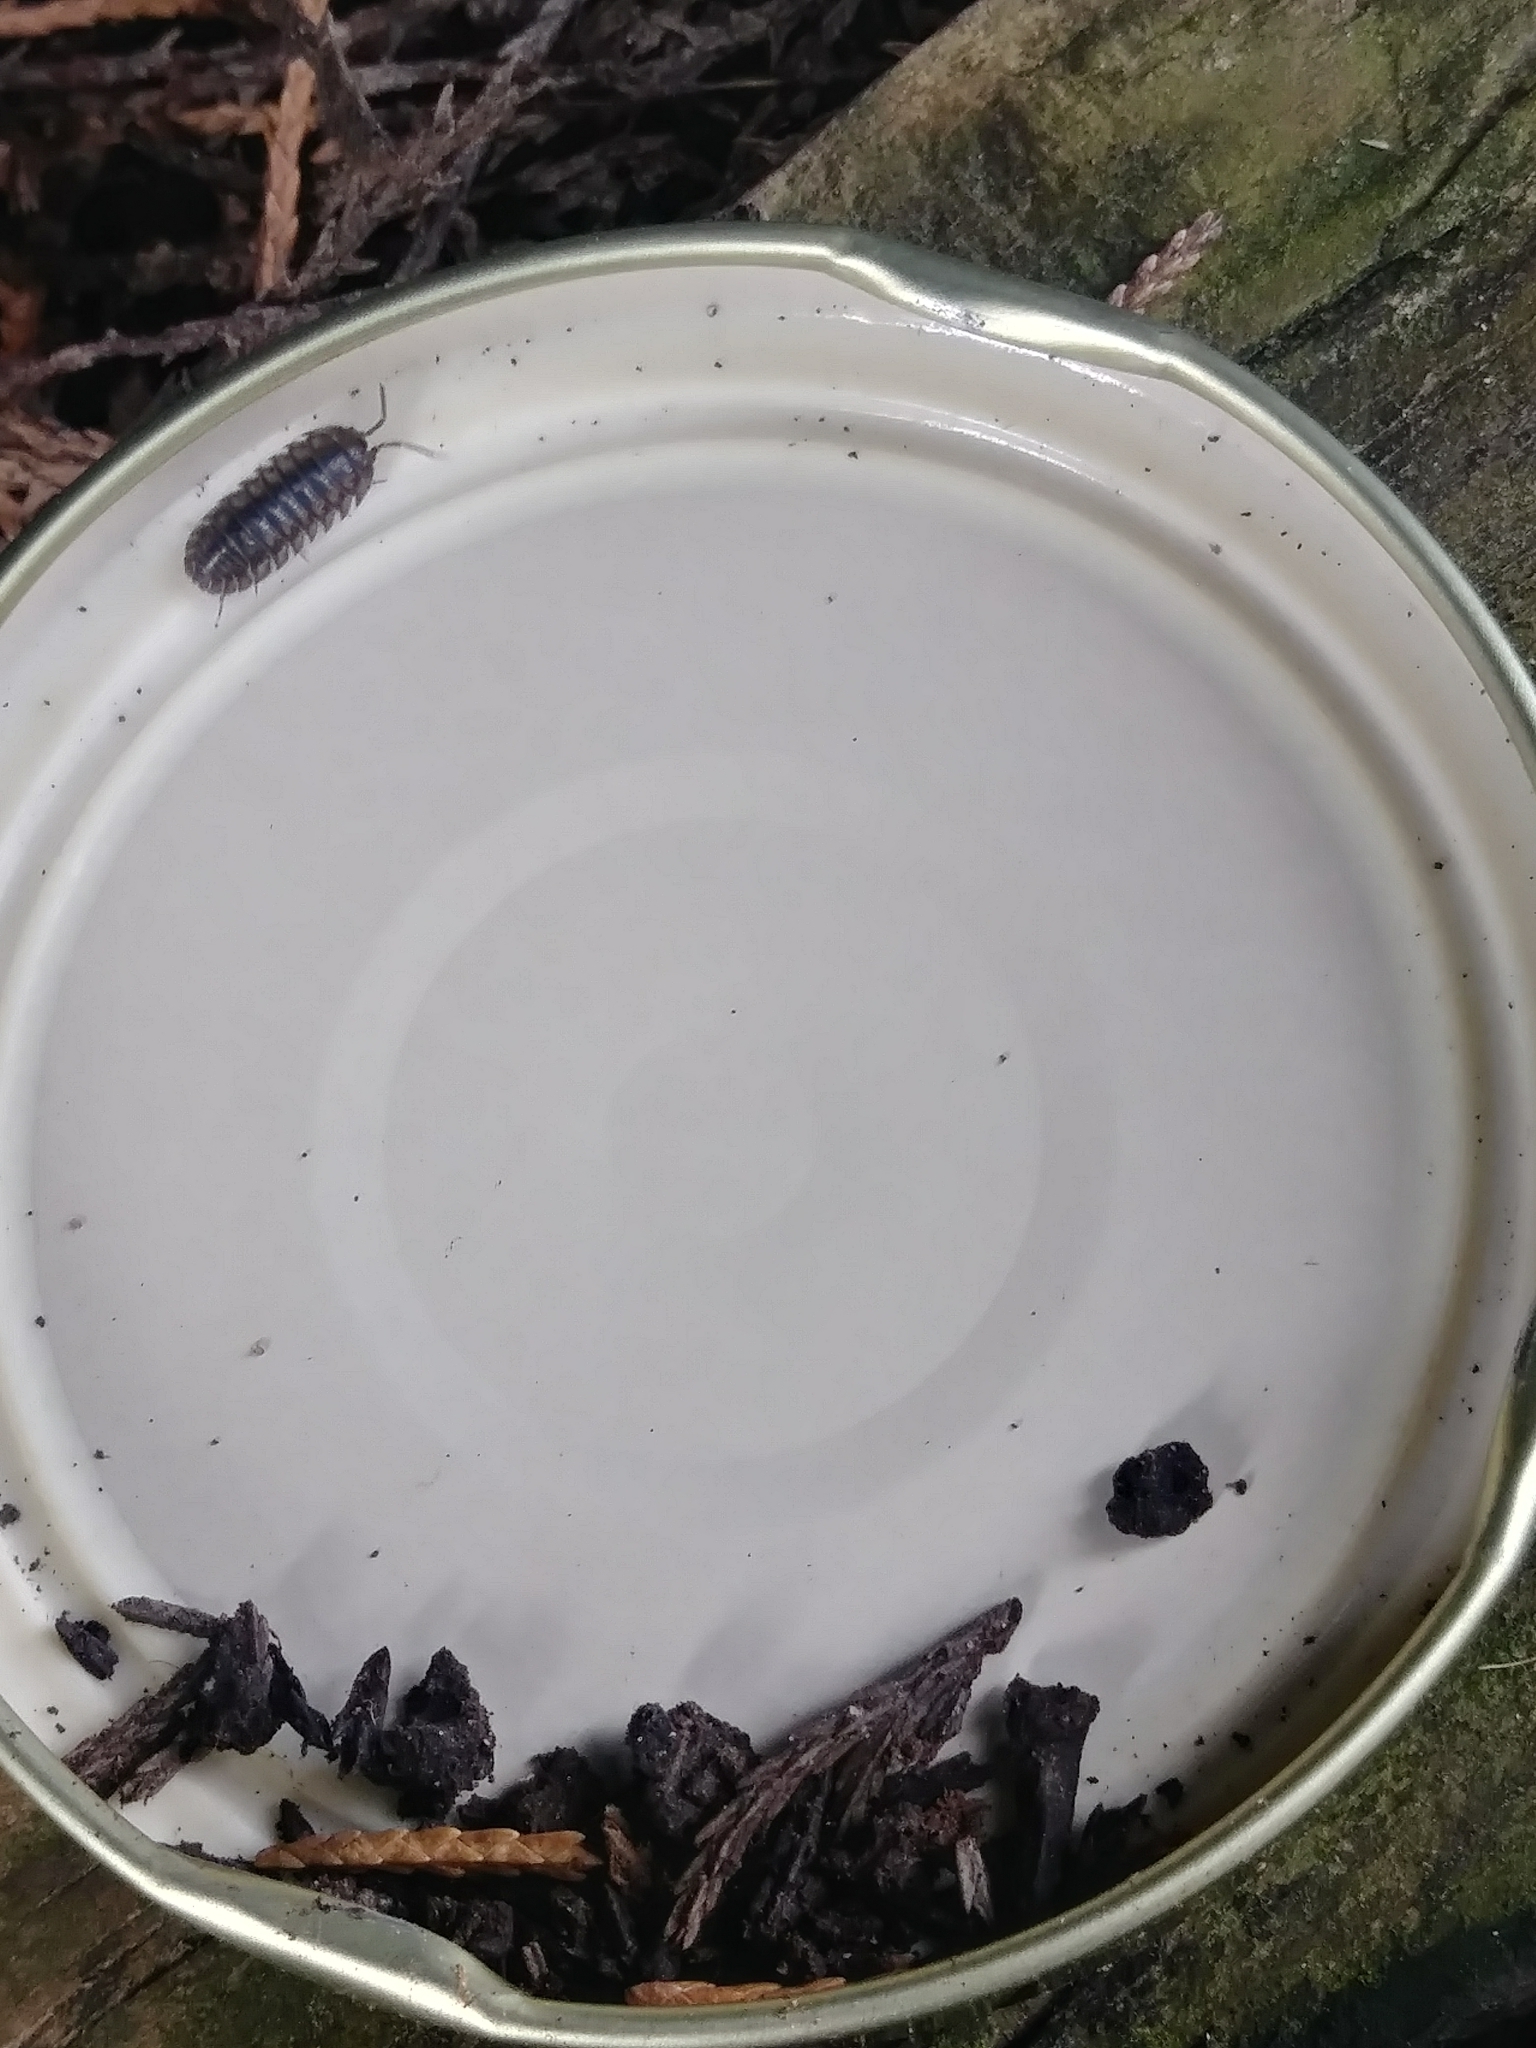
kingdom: Animalia
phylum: Arthropoda
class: Malacostraca
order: Isopoda
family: Armadillidiidae
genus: Armadillidium
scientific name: Armadillidium nasatum
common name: Isopod
